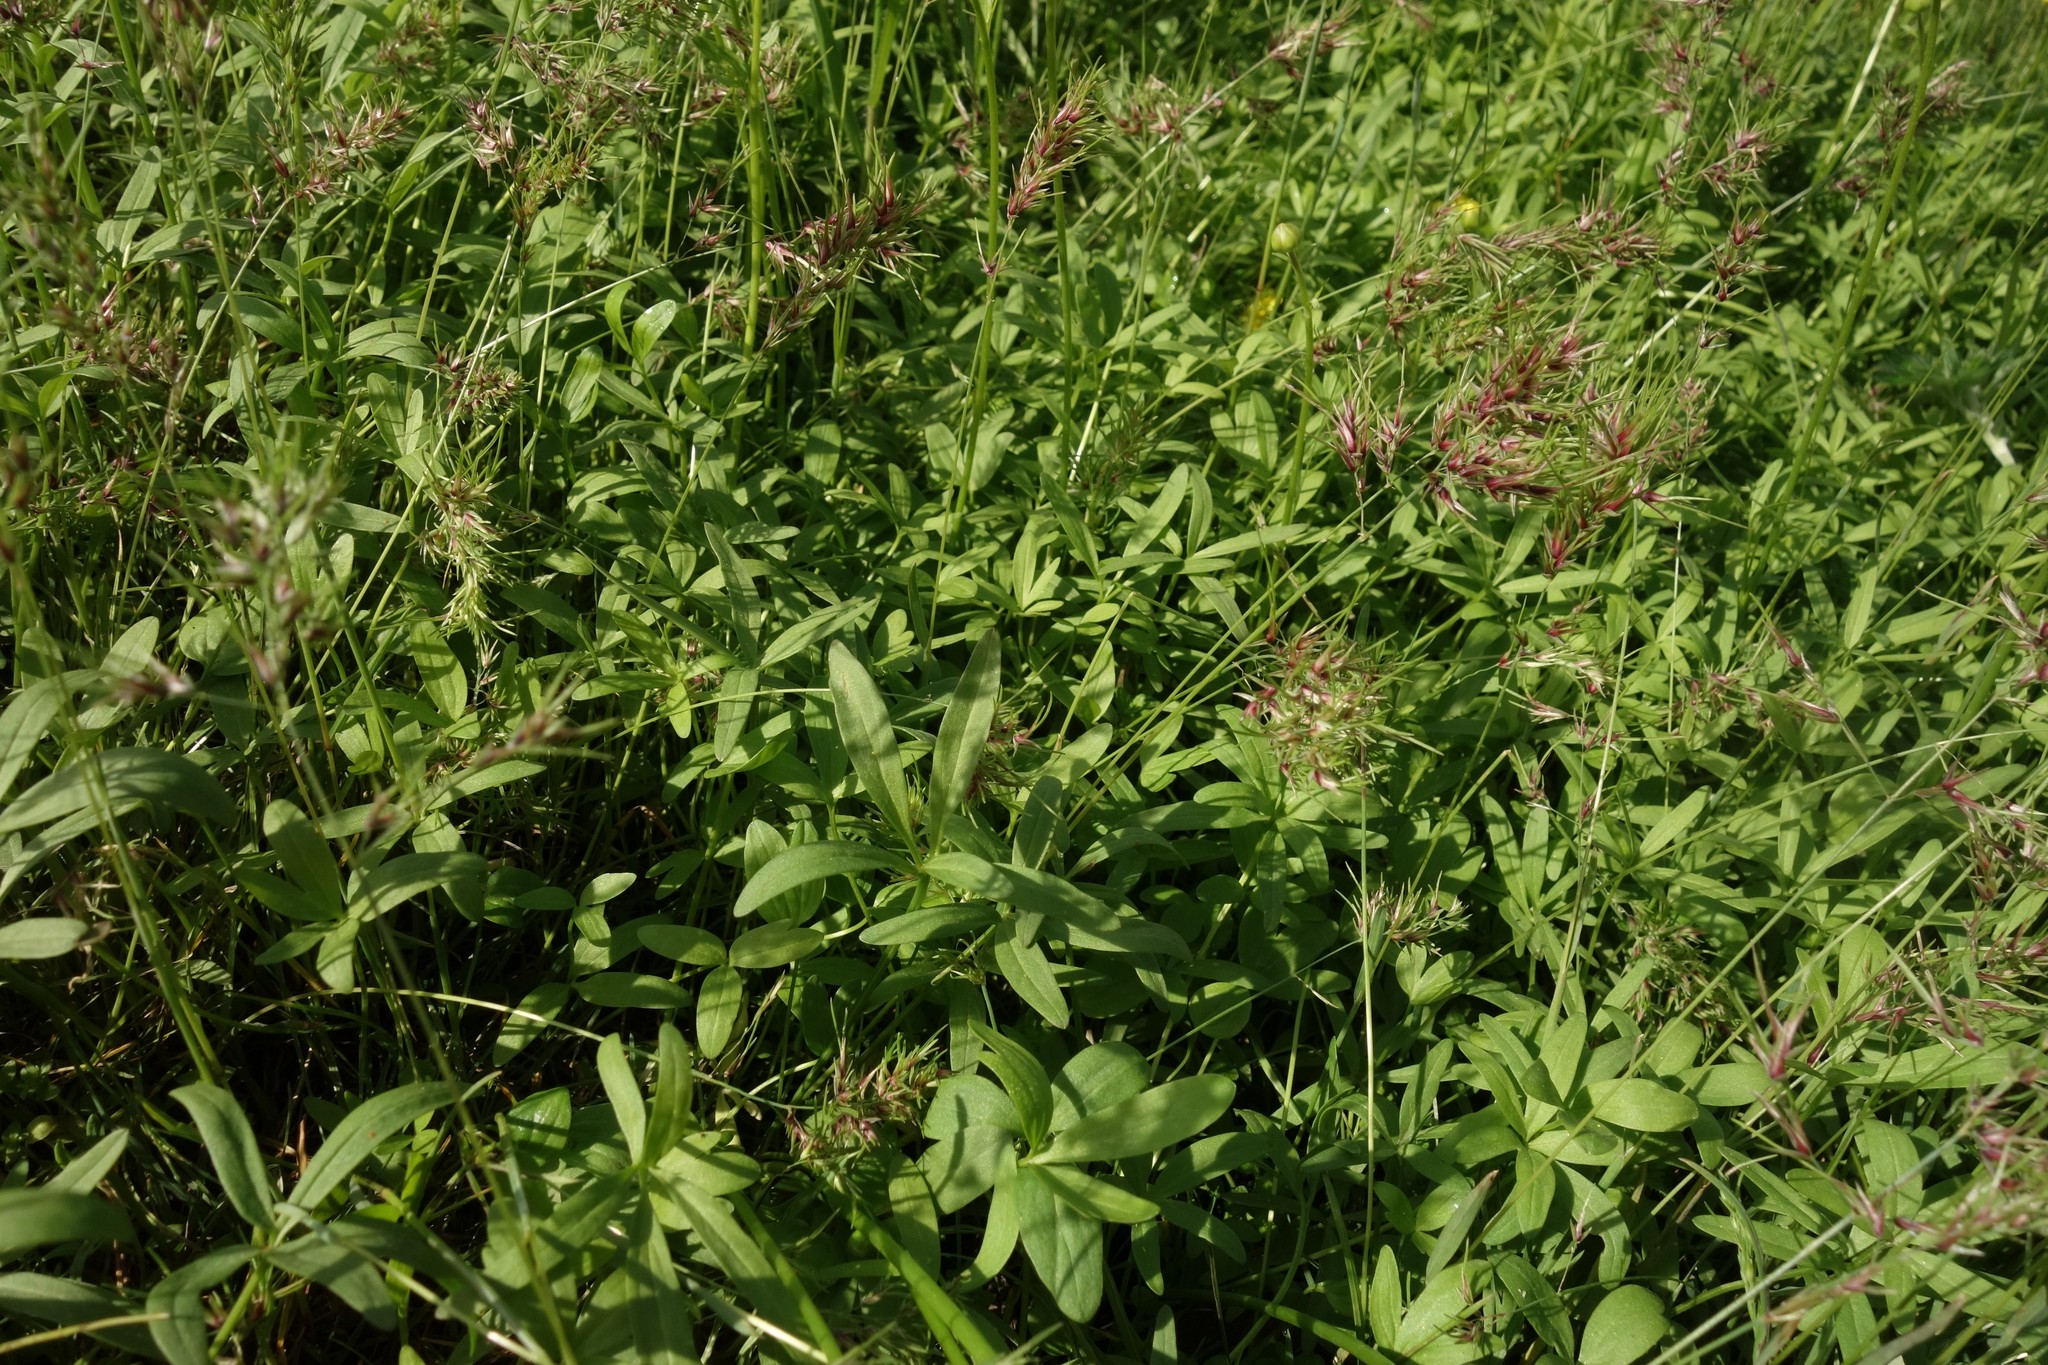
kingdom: Plantae
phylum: Tracheophyta
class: Magnoliopsida
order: Ranunculales
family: Ranunculaceae
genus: Ranunculus
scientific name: Ranunculus pedatus
